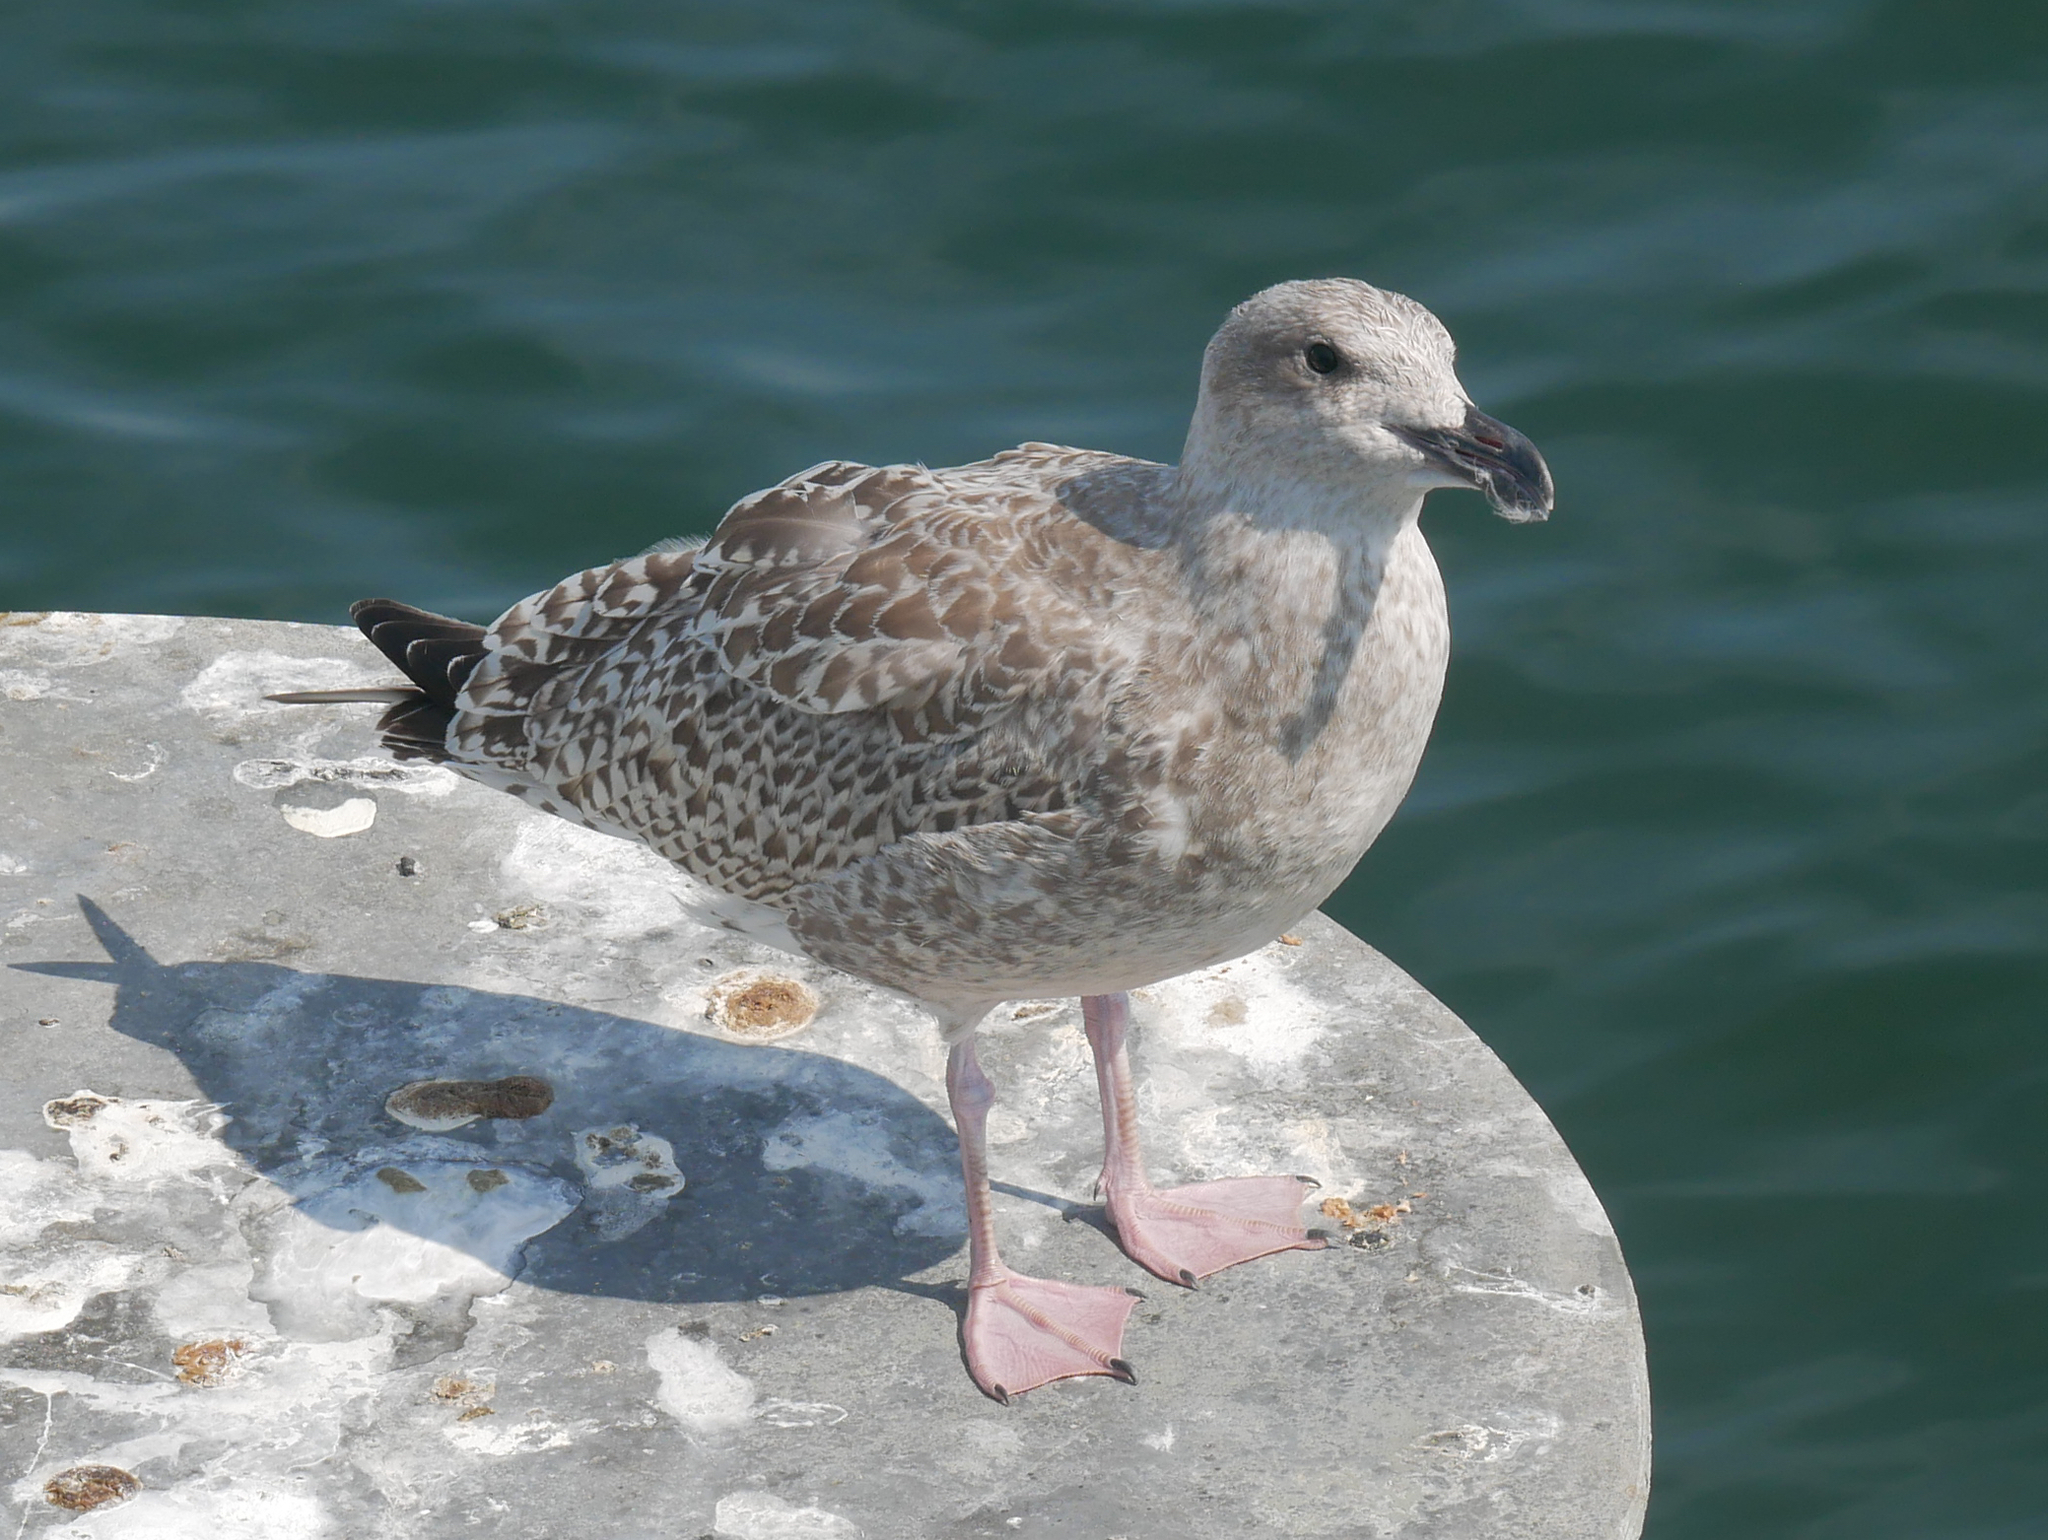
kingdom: Animalia
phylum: Chordata
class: Aves
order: Charadriiformes
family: Laridae
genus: Larus
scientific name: Larus marinus
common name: Great black-backed gull
